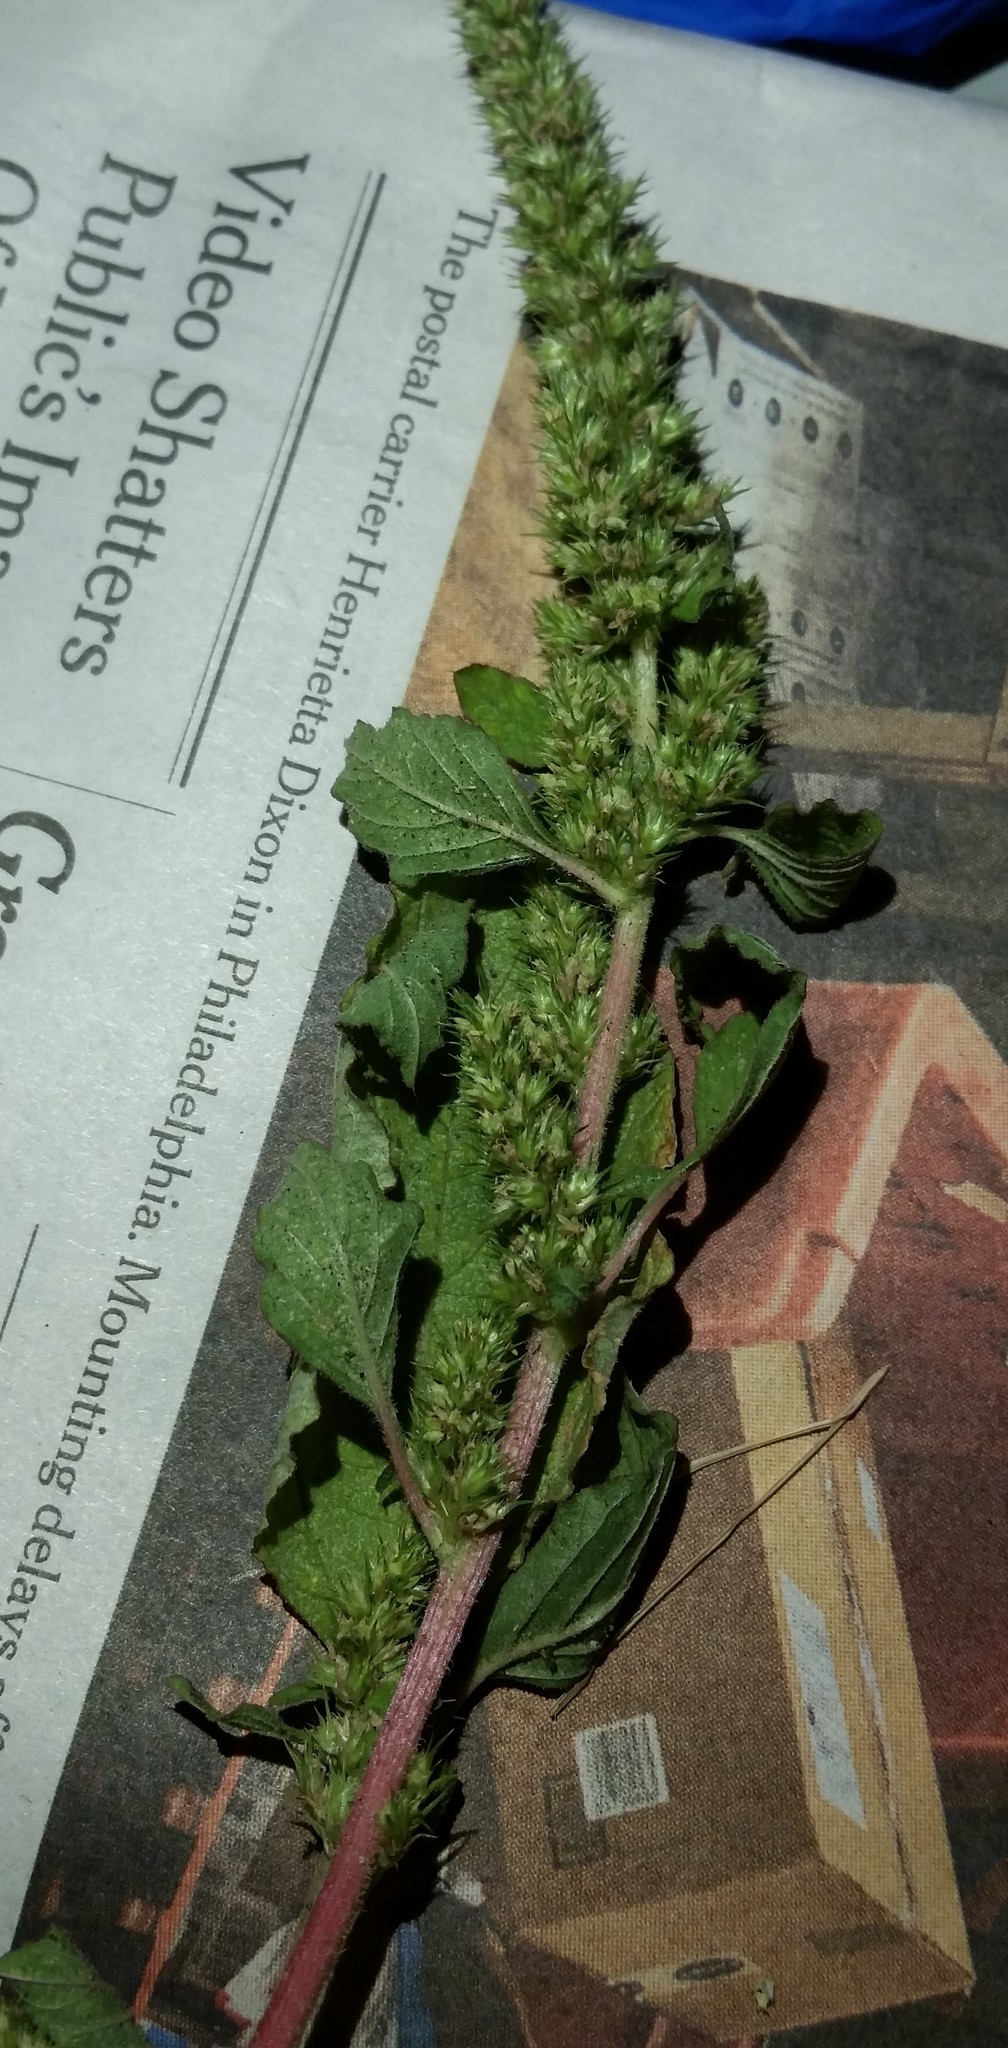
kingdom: Plantae
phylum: Tracheophyta
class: Magnoliopsida
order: Caryophyllales
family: Amaranthaceae
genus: Amaranthus
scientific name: Amaranthus hybridus
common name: Green amaranth
